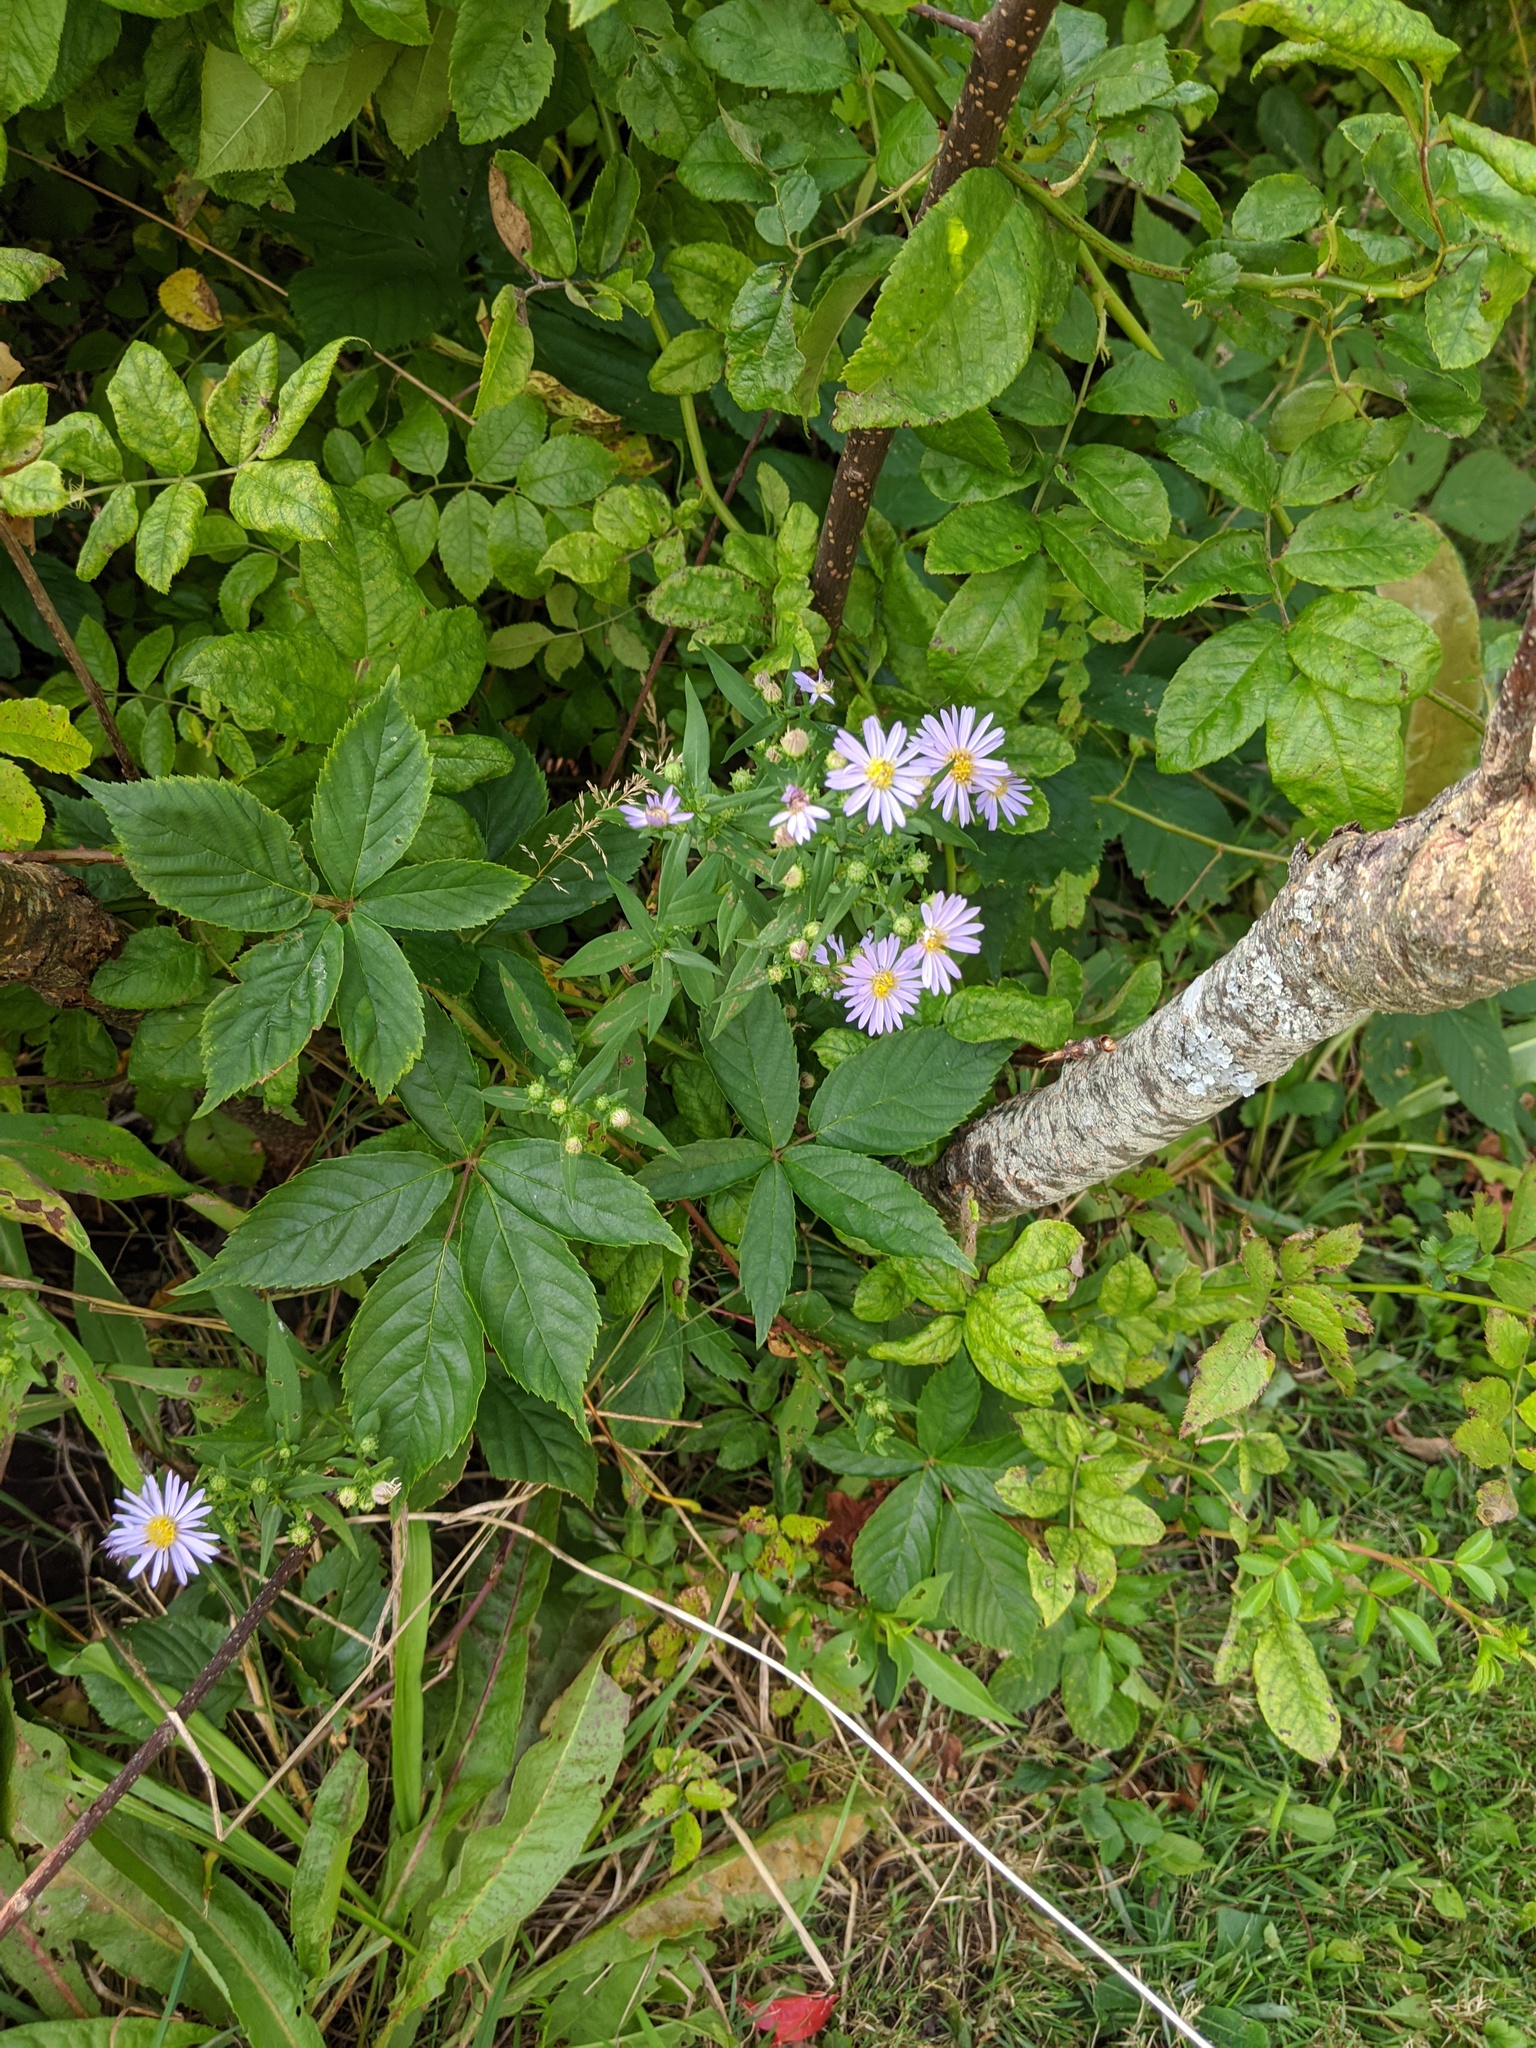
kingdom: Plantae
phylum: Tracheophyta
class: Magnoliopsida
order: Asterales
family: Asteraceae
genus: Symphyotrichum
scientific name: Symphyotrichum novi-belgii
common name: Michaelmas daisy
